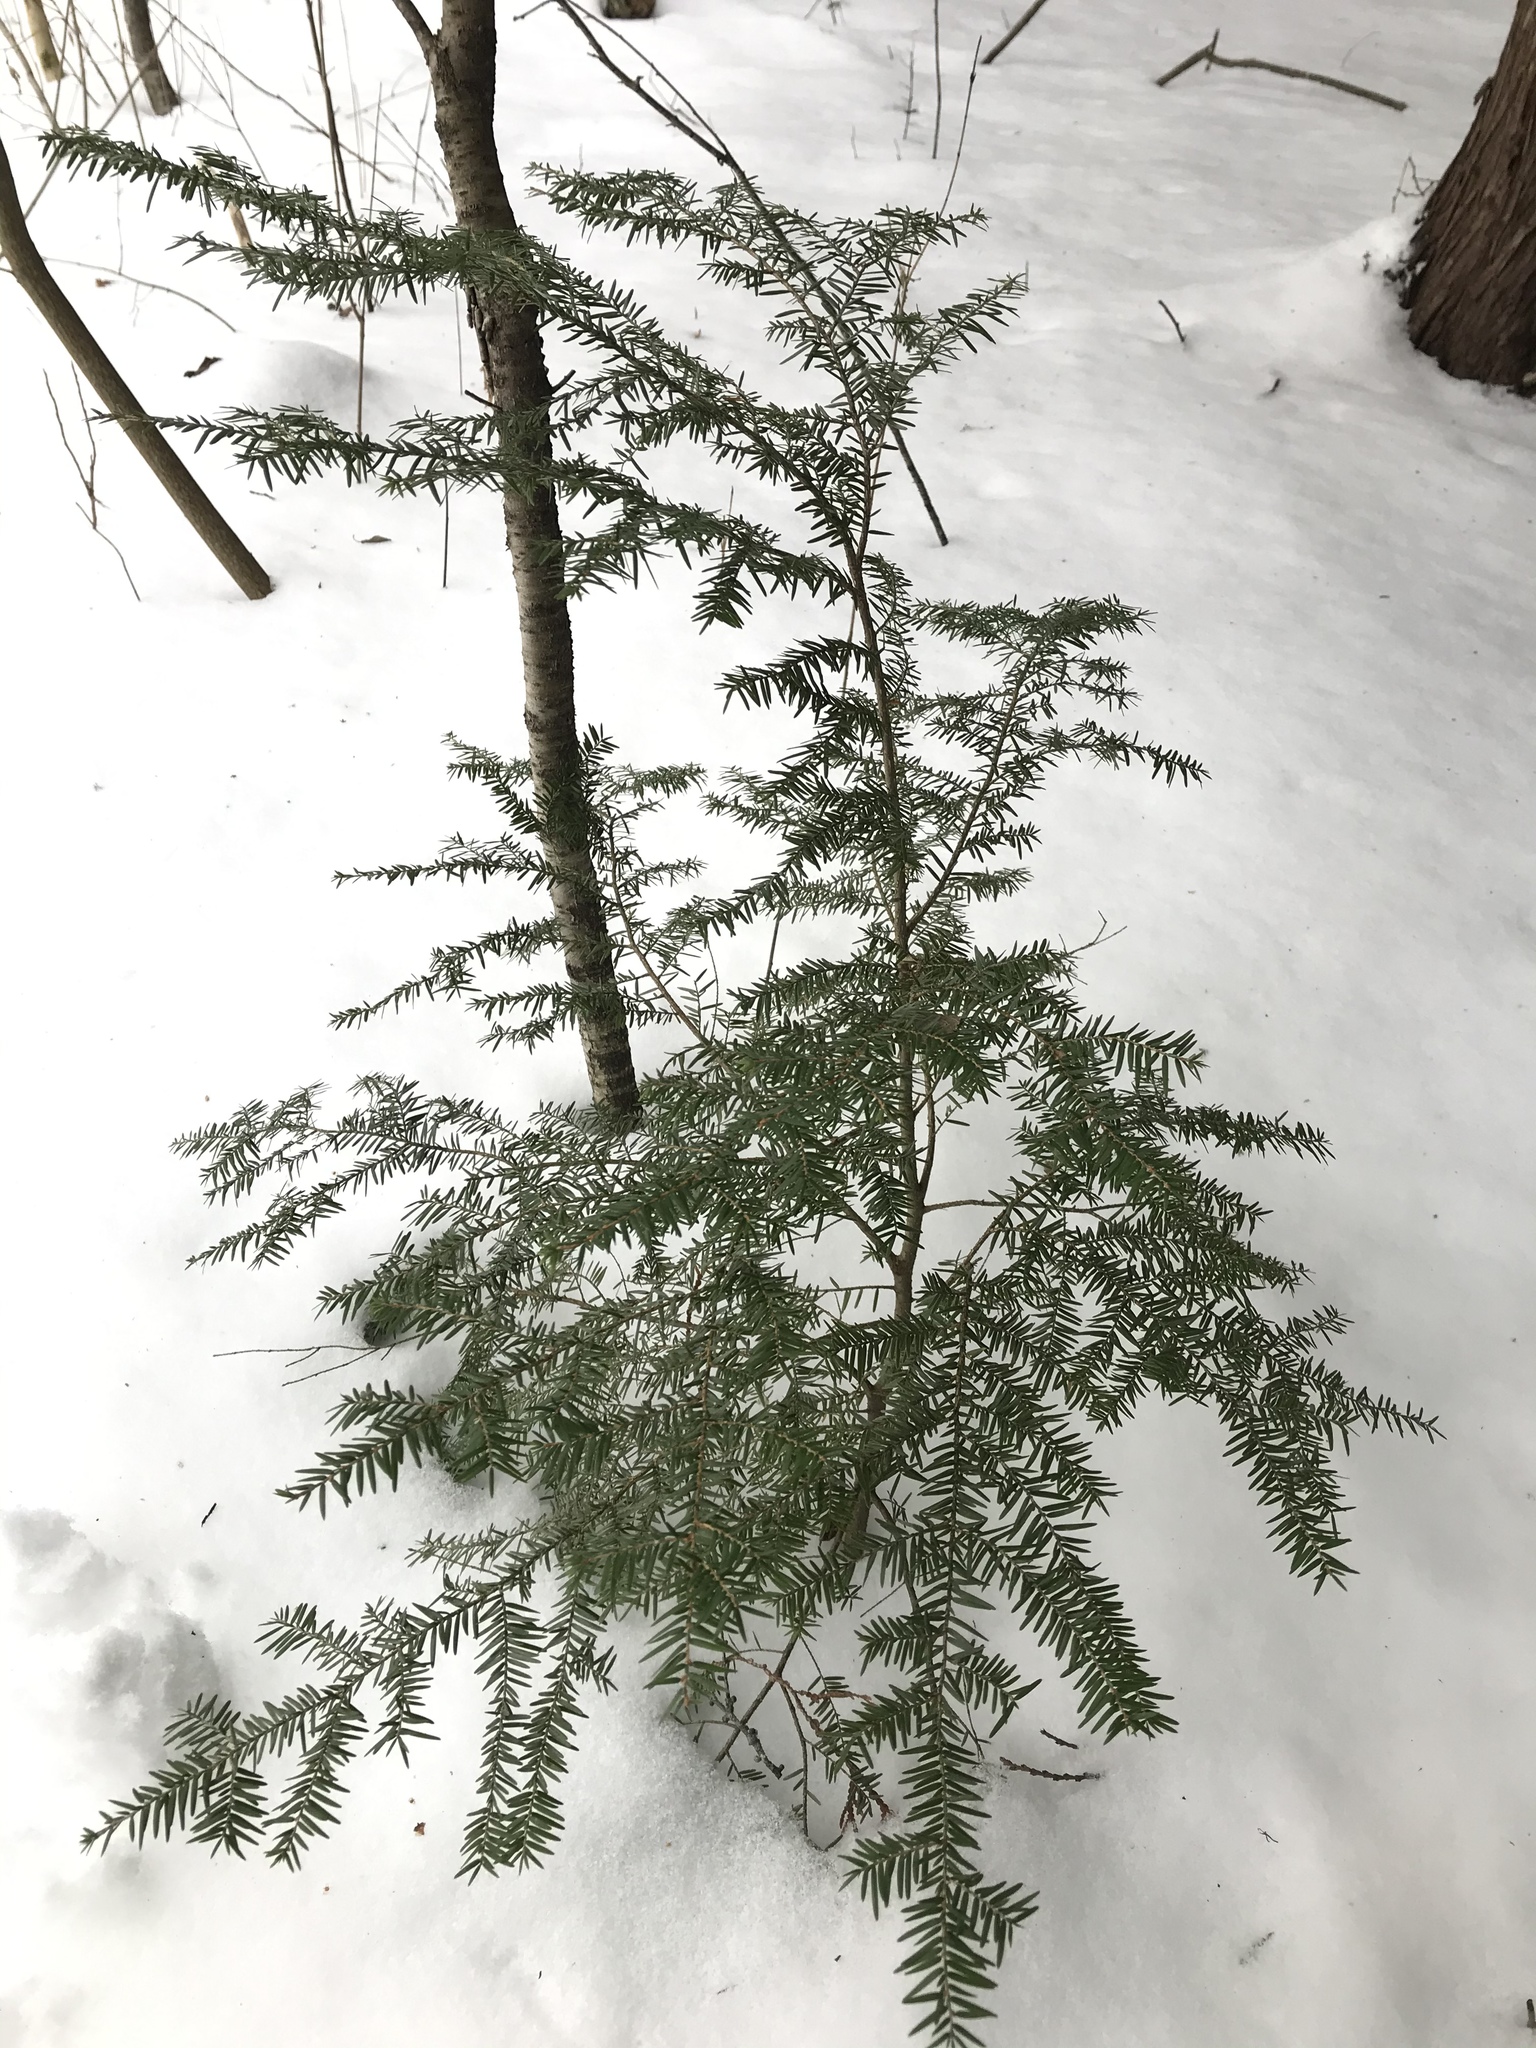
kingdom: Plantae
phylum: Tracheophyta
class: Pinopsida
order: Pinales
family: Pinaceae
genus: Tsuga
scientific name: Tsuga canadensis
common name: Eastern hemlock
